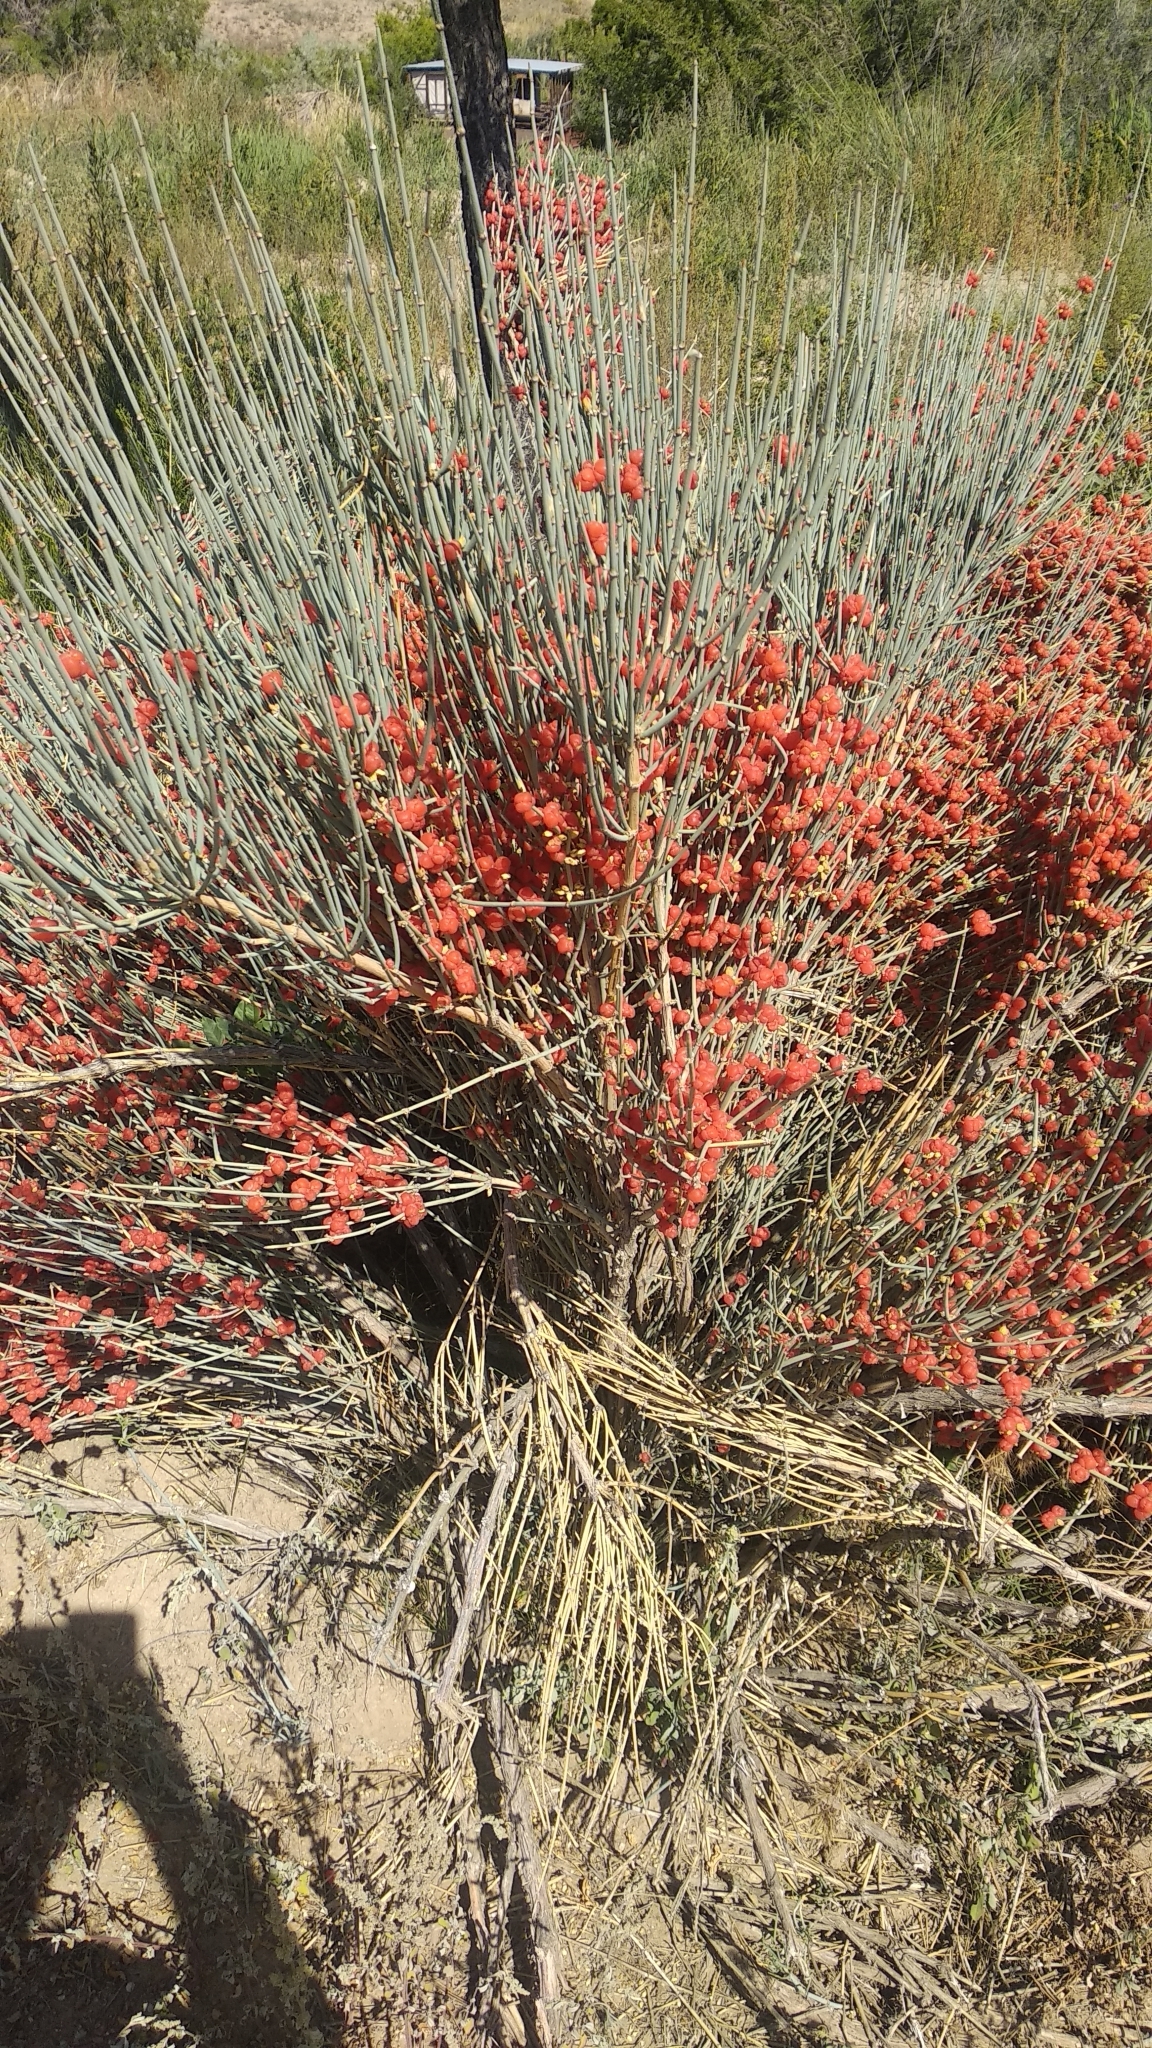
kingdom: Plantae
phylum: Tracheophyta
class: Gnetopsida
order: Ephedrales
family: Ephedraceae
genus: Ephedra
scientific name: Ephedra intermedia
